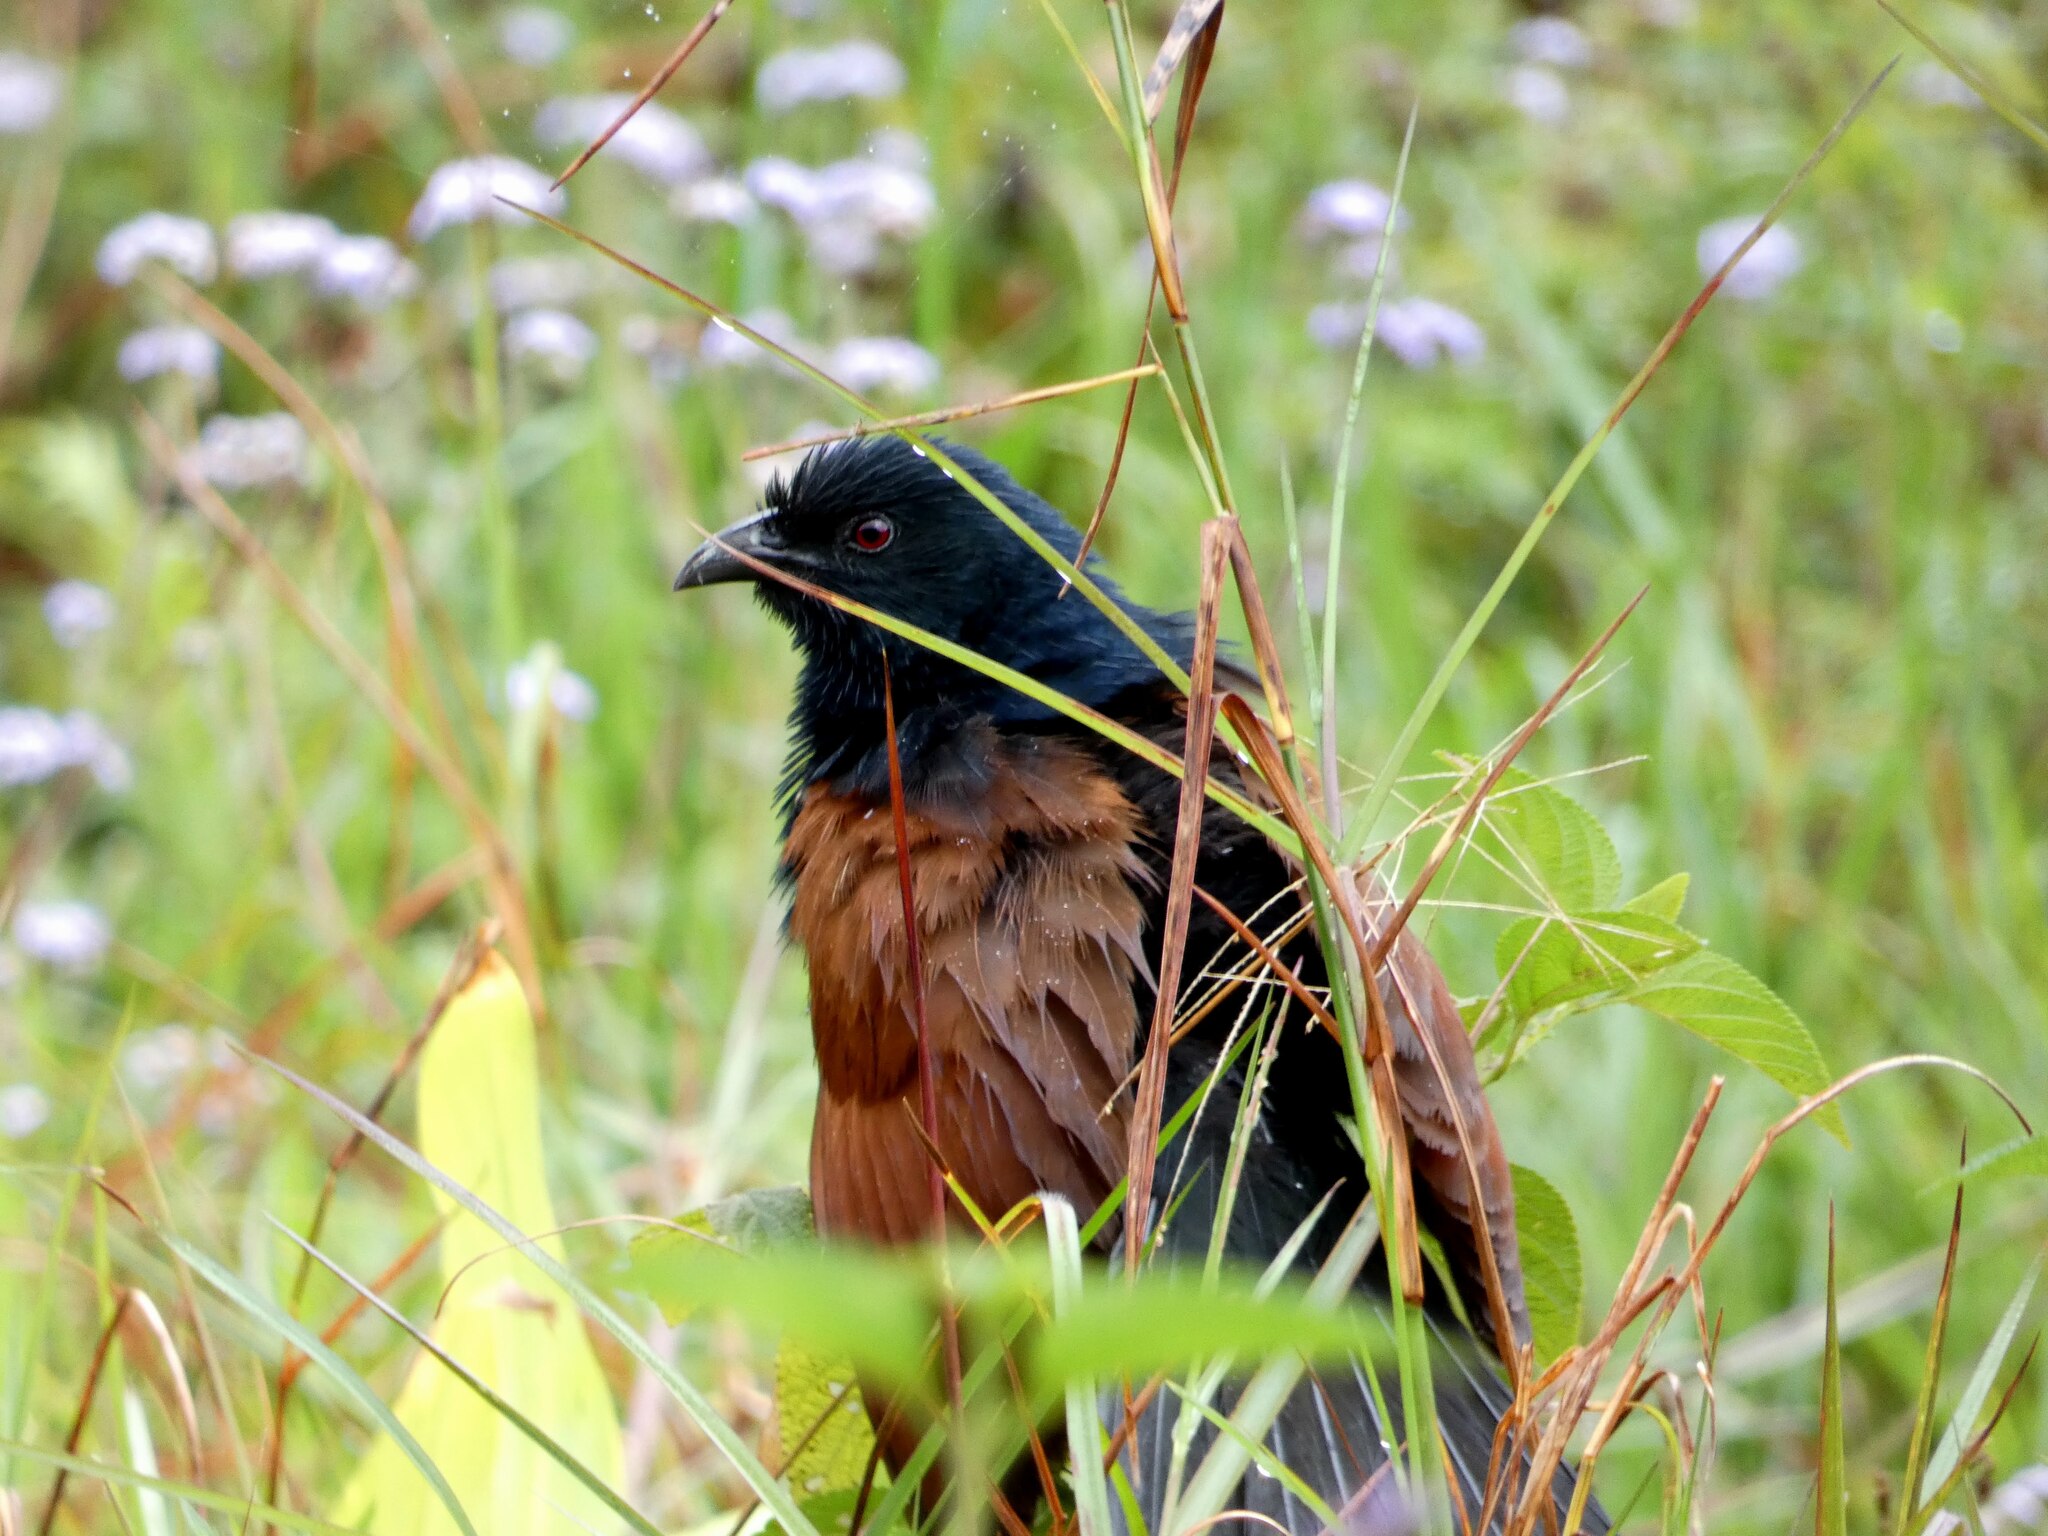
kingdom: Animalia
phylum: Chordata
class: Aves
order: Cuculiformes
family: Cuculidae
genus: Centropus
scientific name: Centropus toulou
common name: Malagasy coucal
